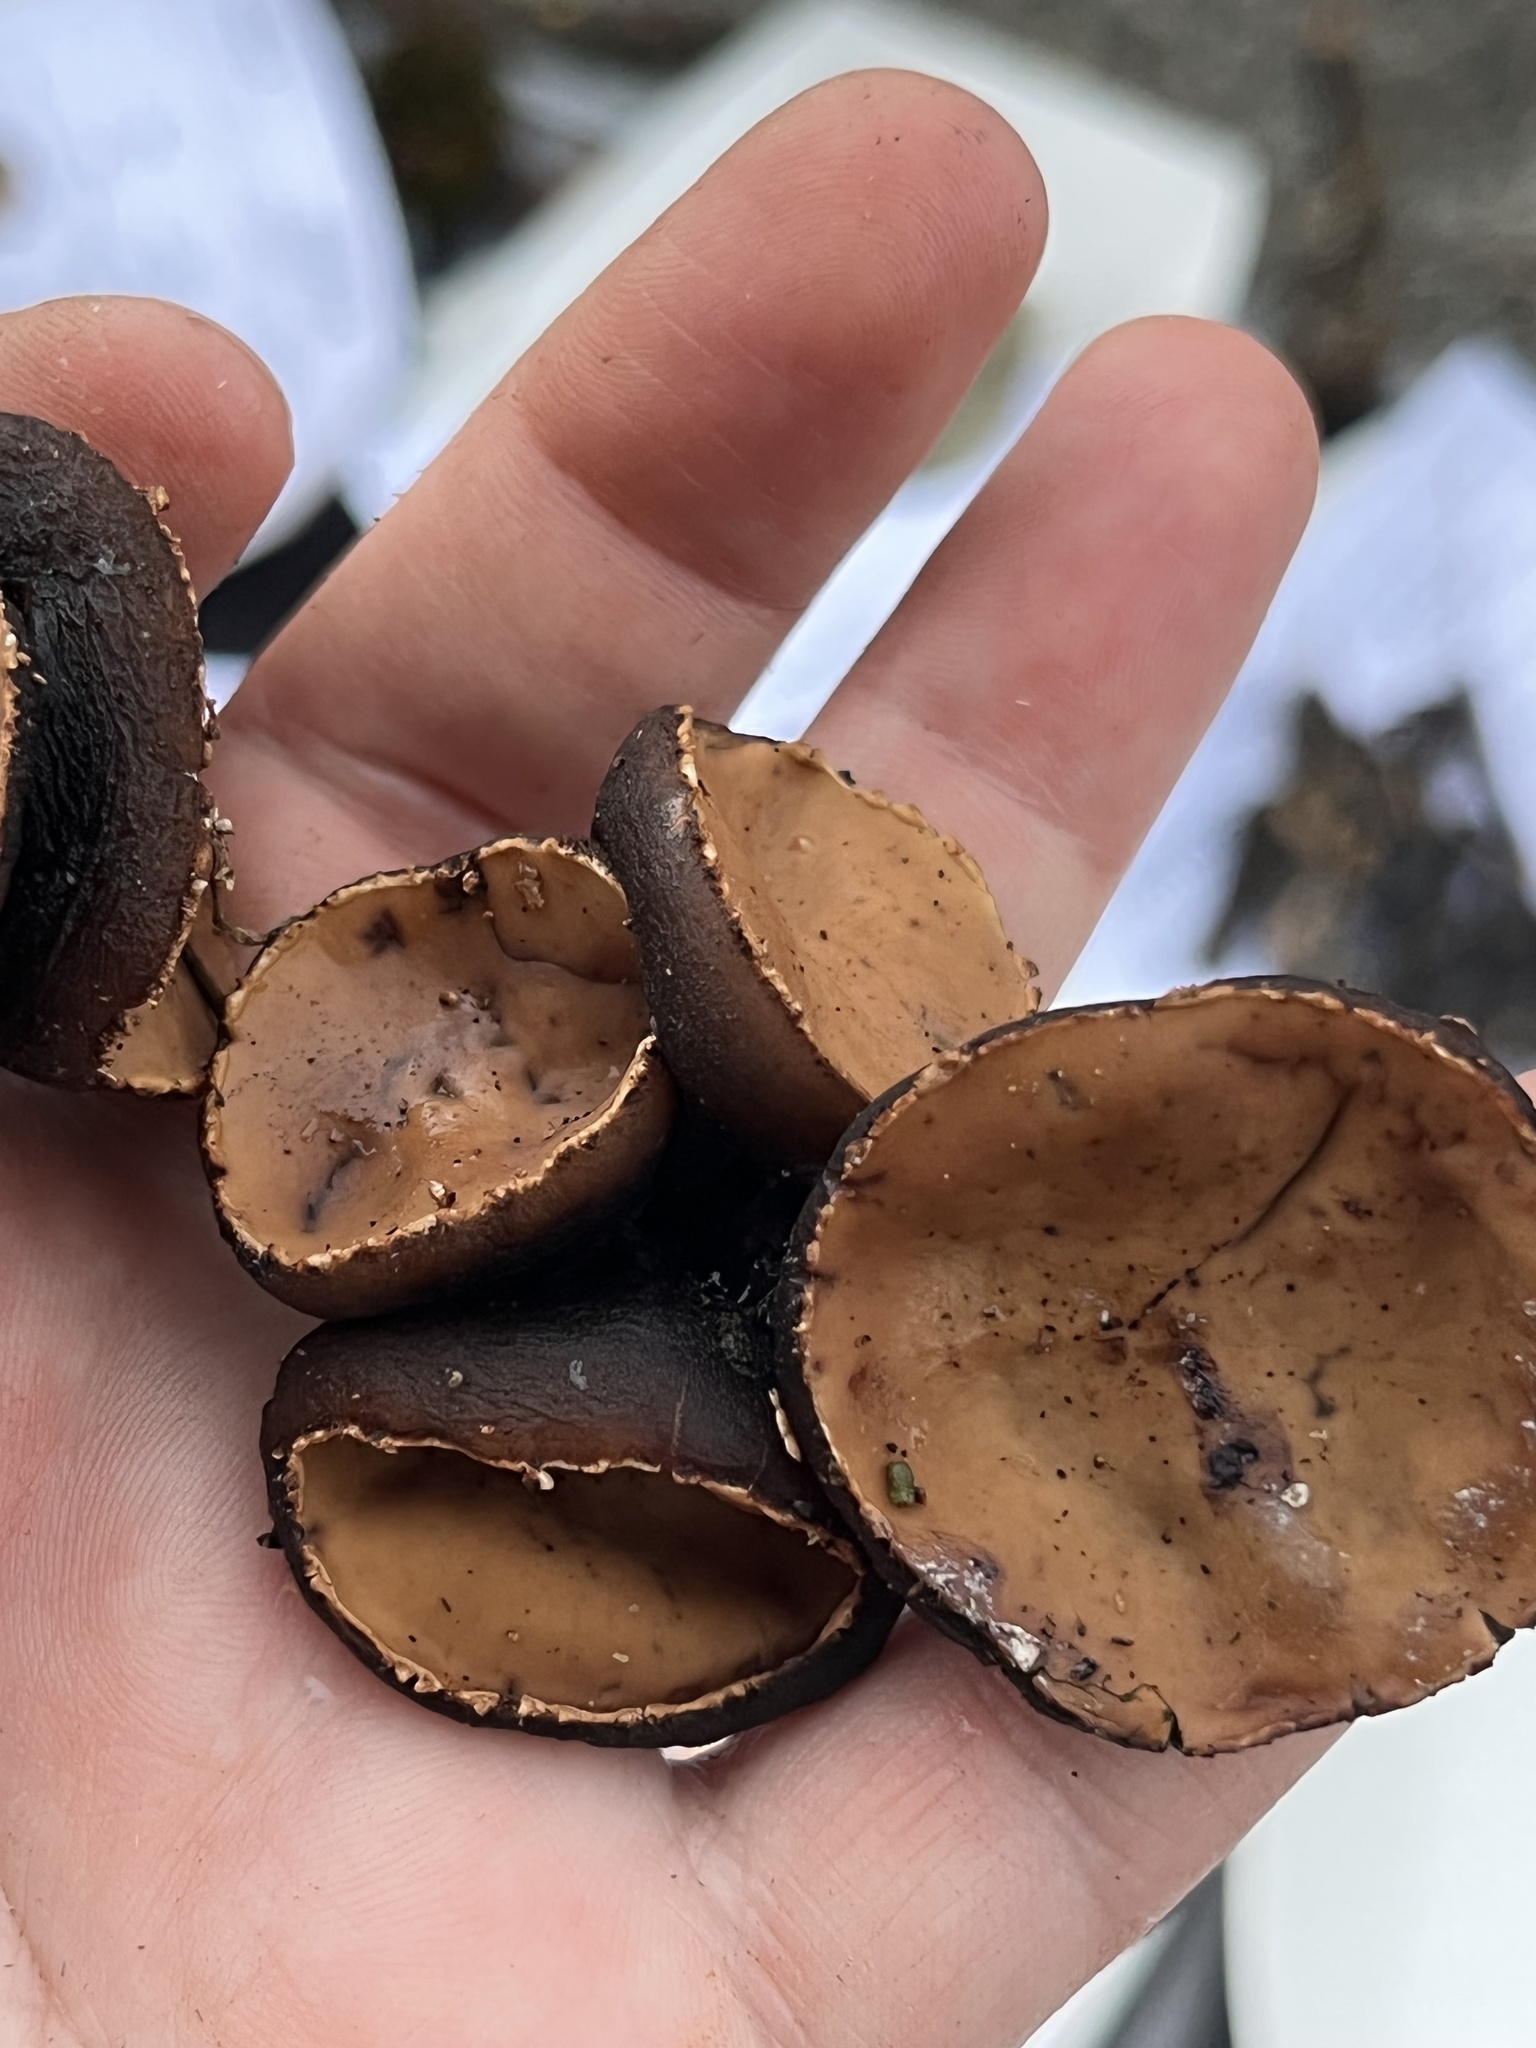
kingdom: Fungi
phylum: Ascomycota
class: Pezizomycetes
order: Pezizales
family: Sarcosomataceae
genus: Galiella
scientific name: Galiella rufa
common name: Hairy rubber cup
